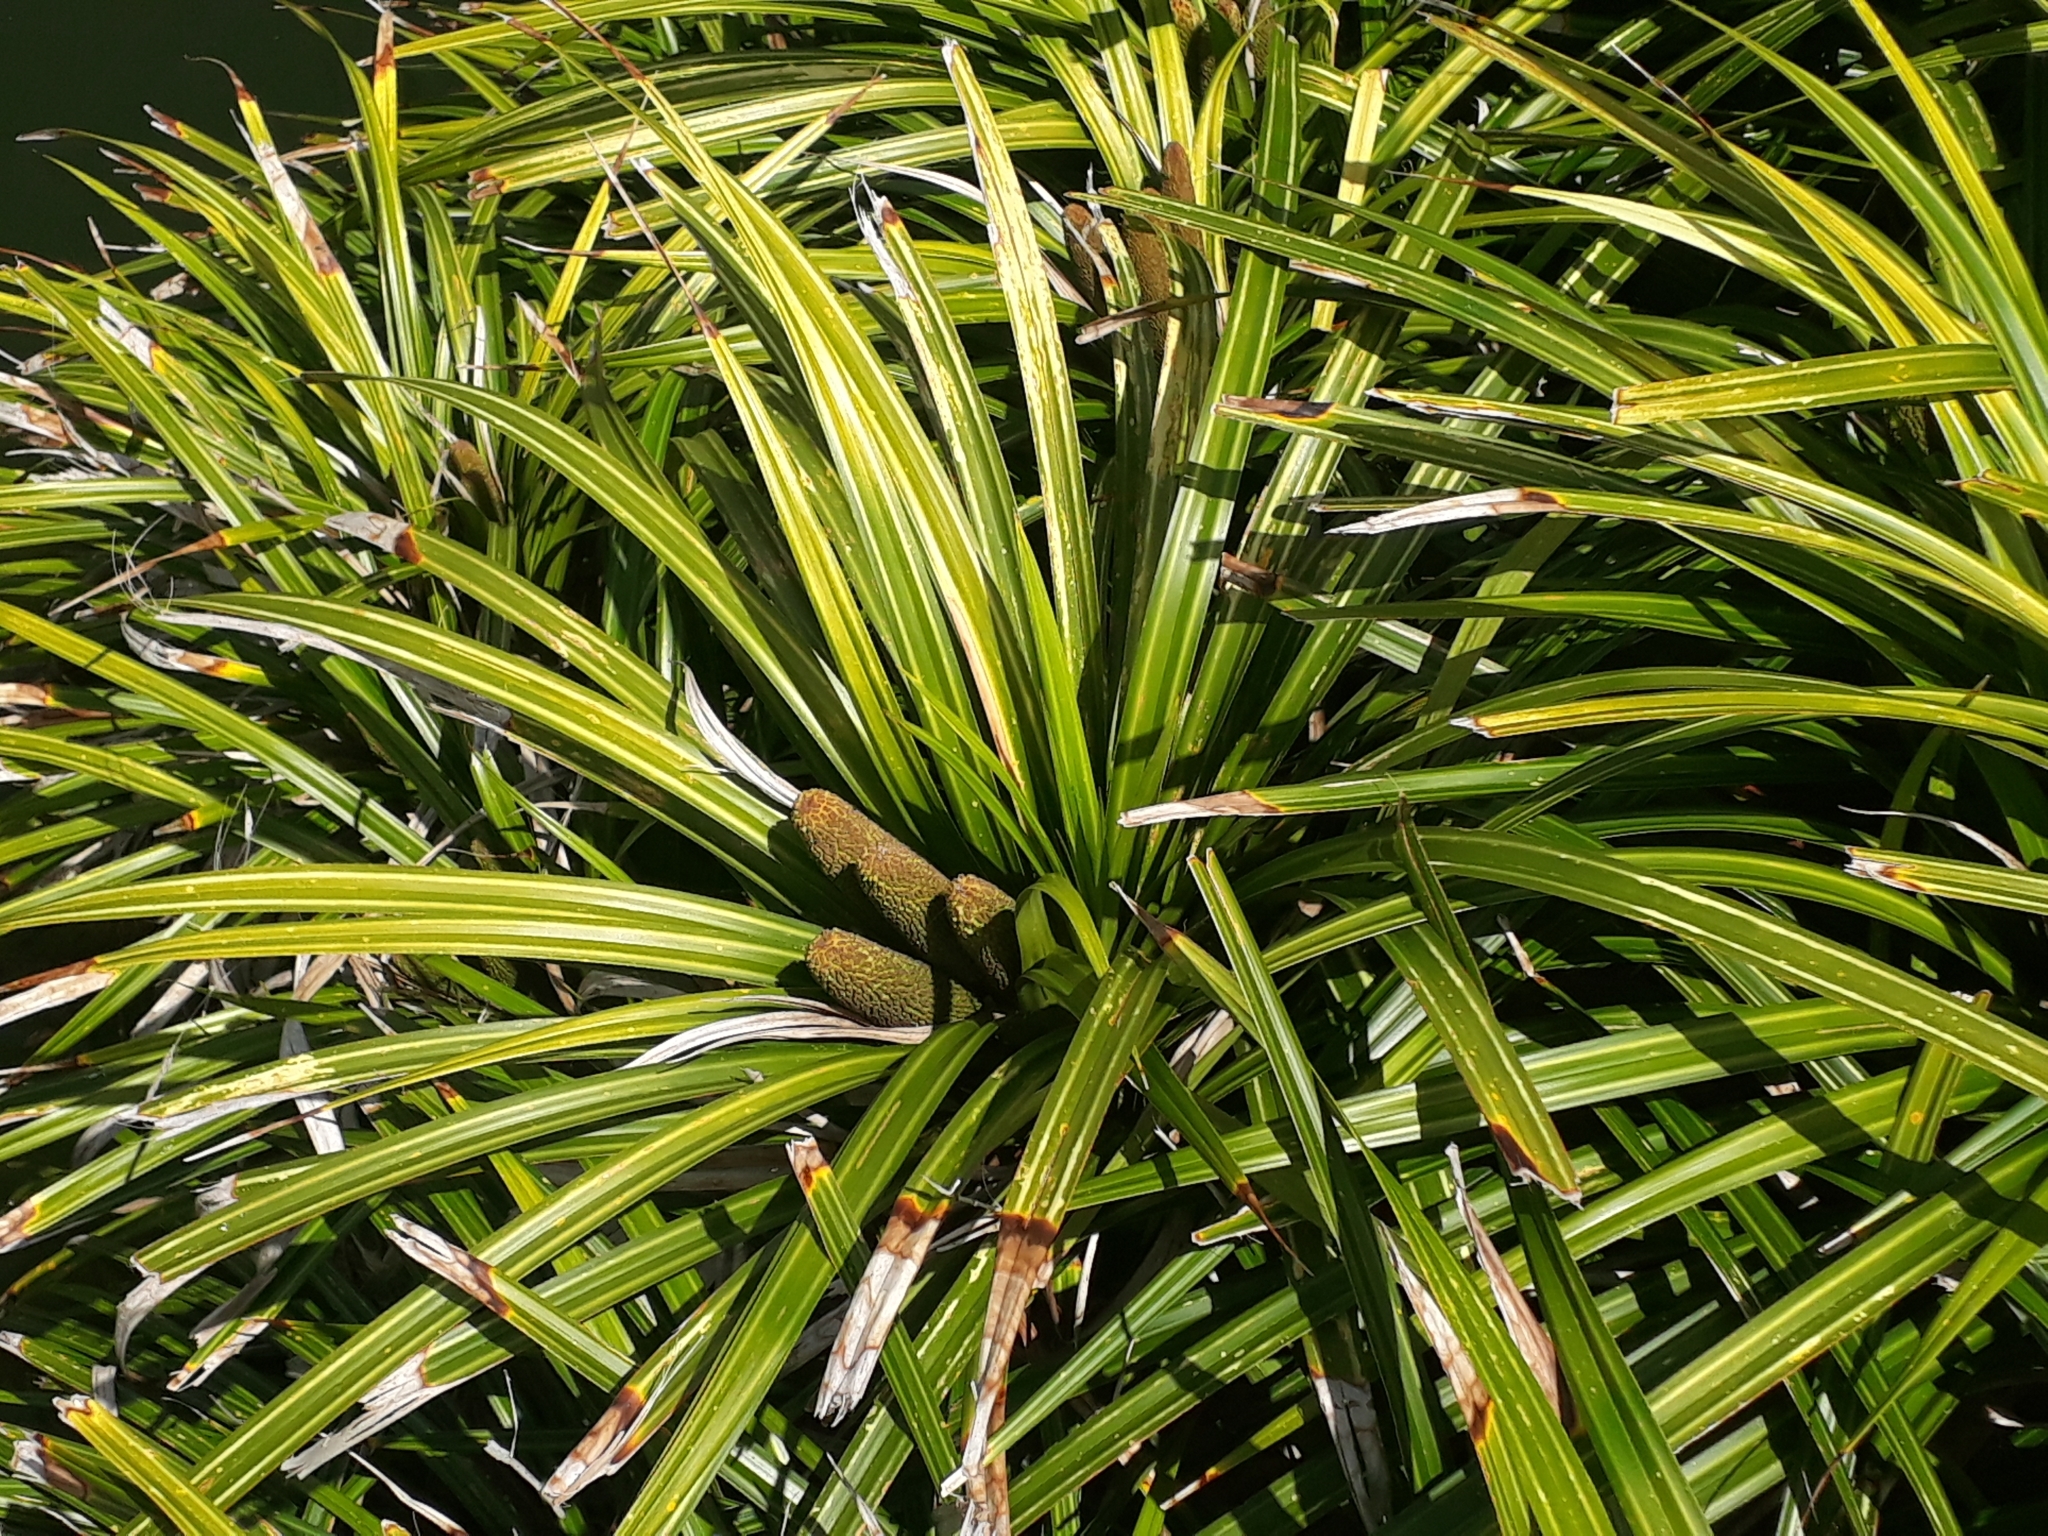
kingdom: Plantae
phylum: Tracheophyta
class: Liliopsida
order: Pandanales
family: Pandanaceae
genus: Freycinetia
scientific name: Freycinetia banksii
